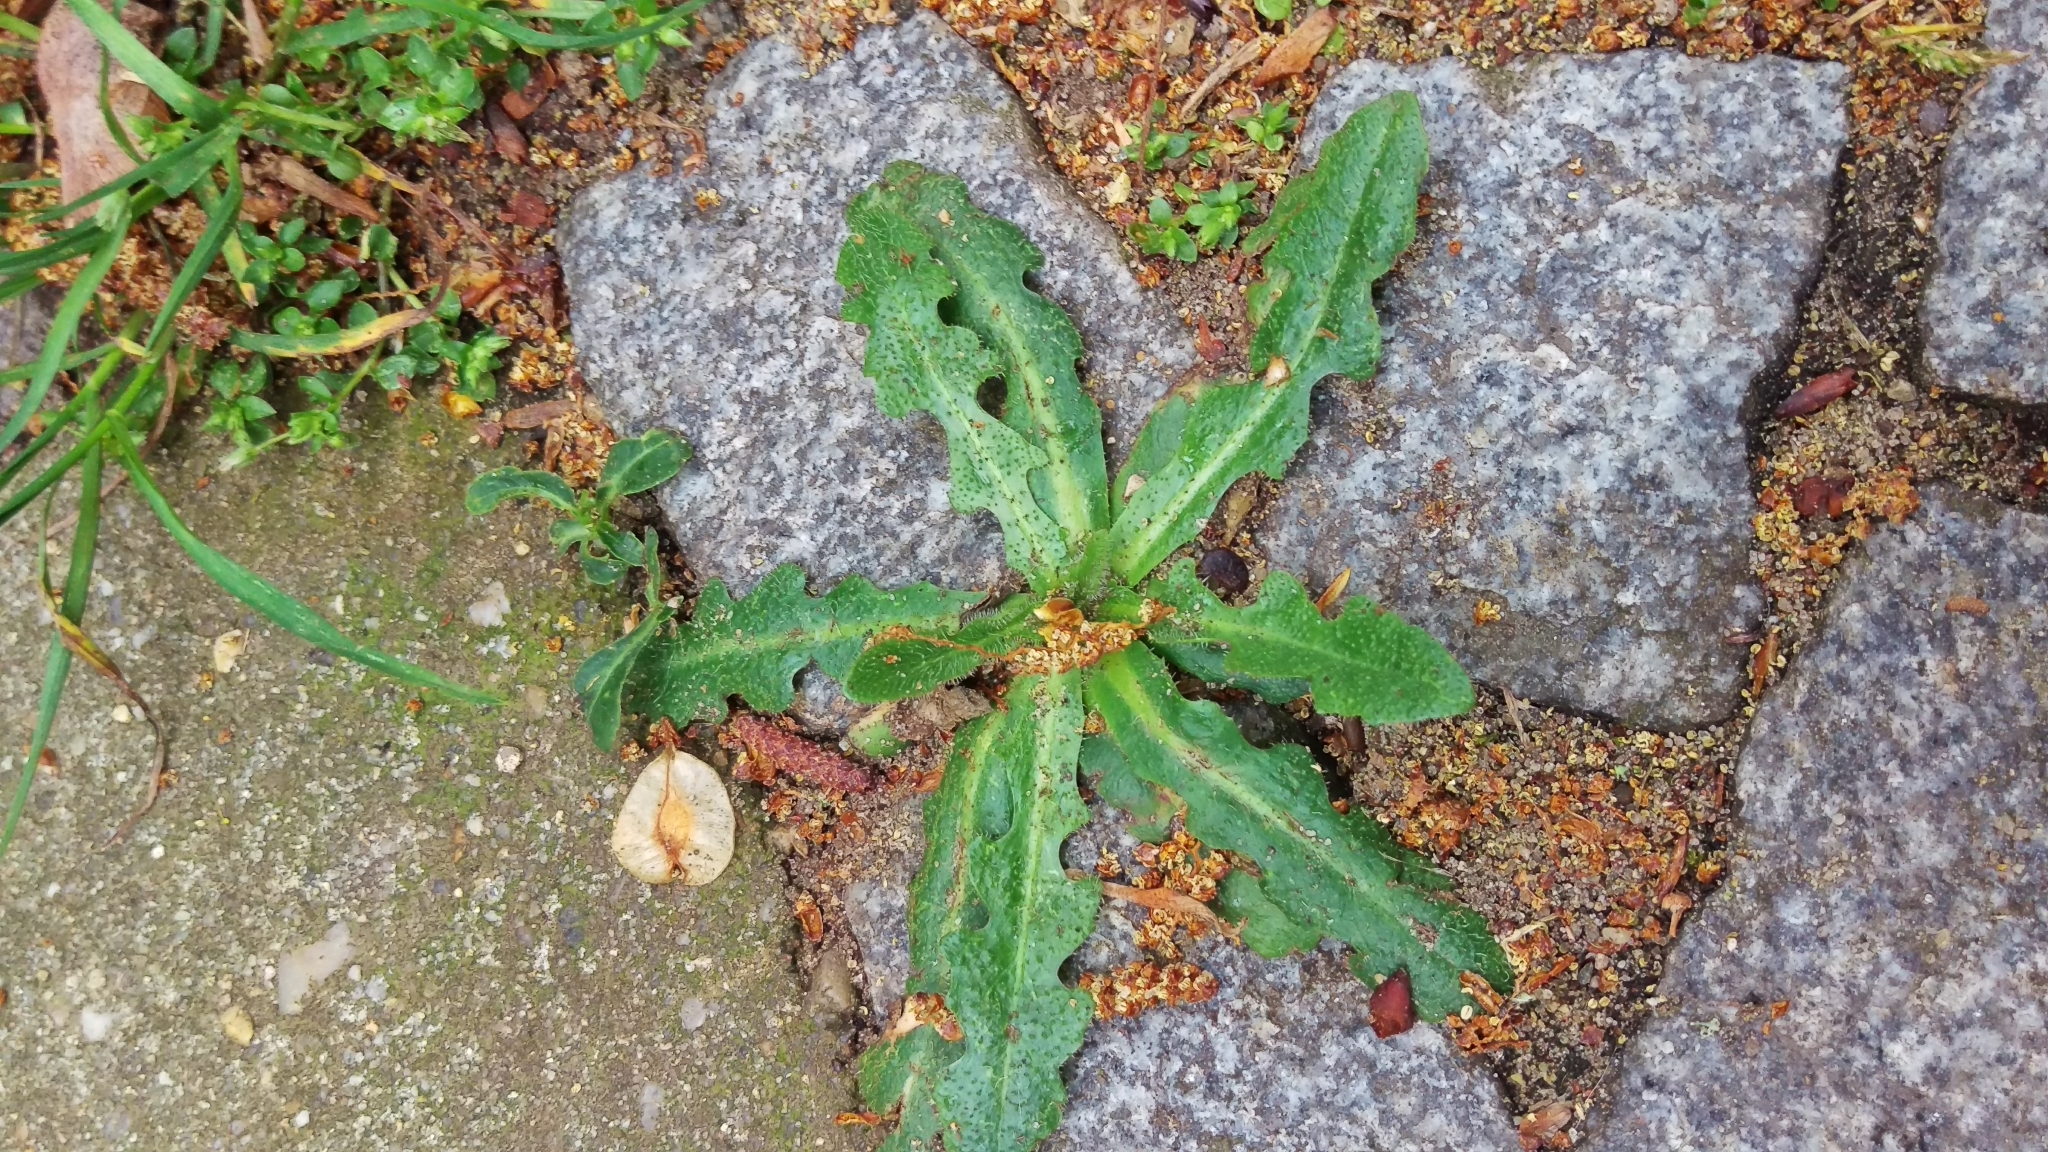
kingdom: Plantae
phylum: Tracheophyta
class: Magnoliopsida
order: Asterales
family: Asteraceae
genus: Hypochaeris
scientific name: Hypochaeris radicata
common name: Flatweed
